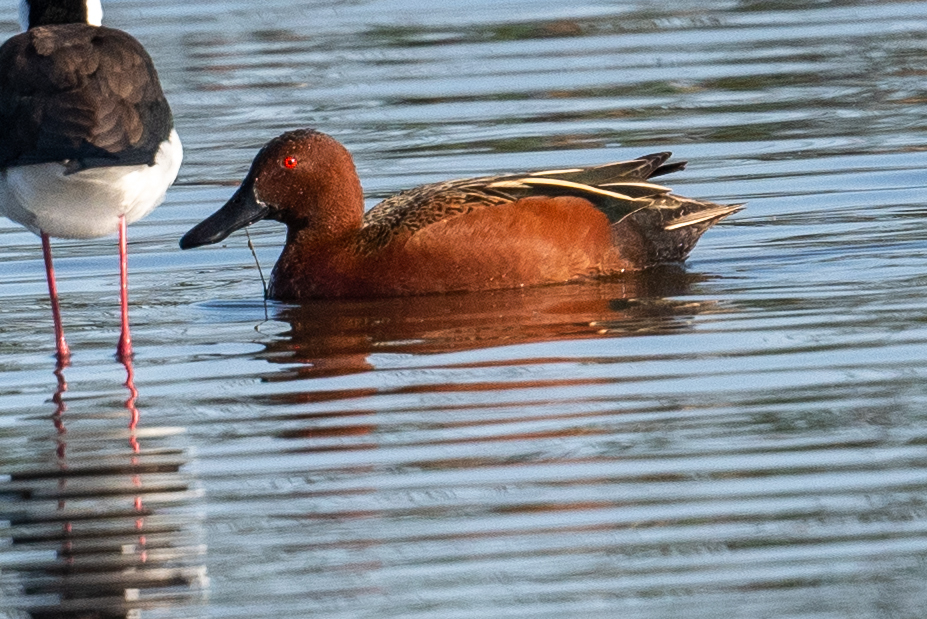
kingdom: Animalia
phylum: Chordata
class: Aves
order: Anseriformes
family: Anatidae
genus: Spatula
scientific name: Spatula cyanoptera
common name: Cinnamon teal
